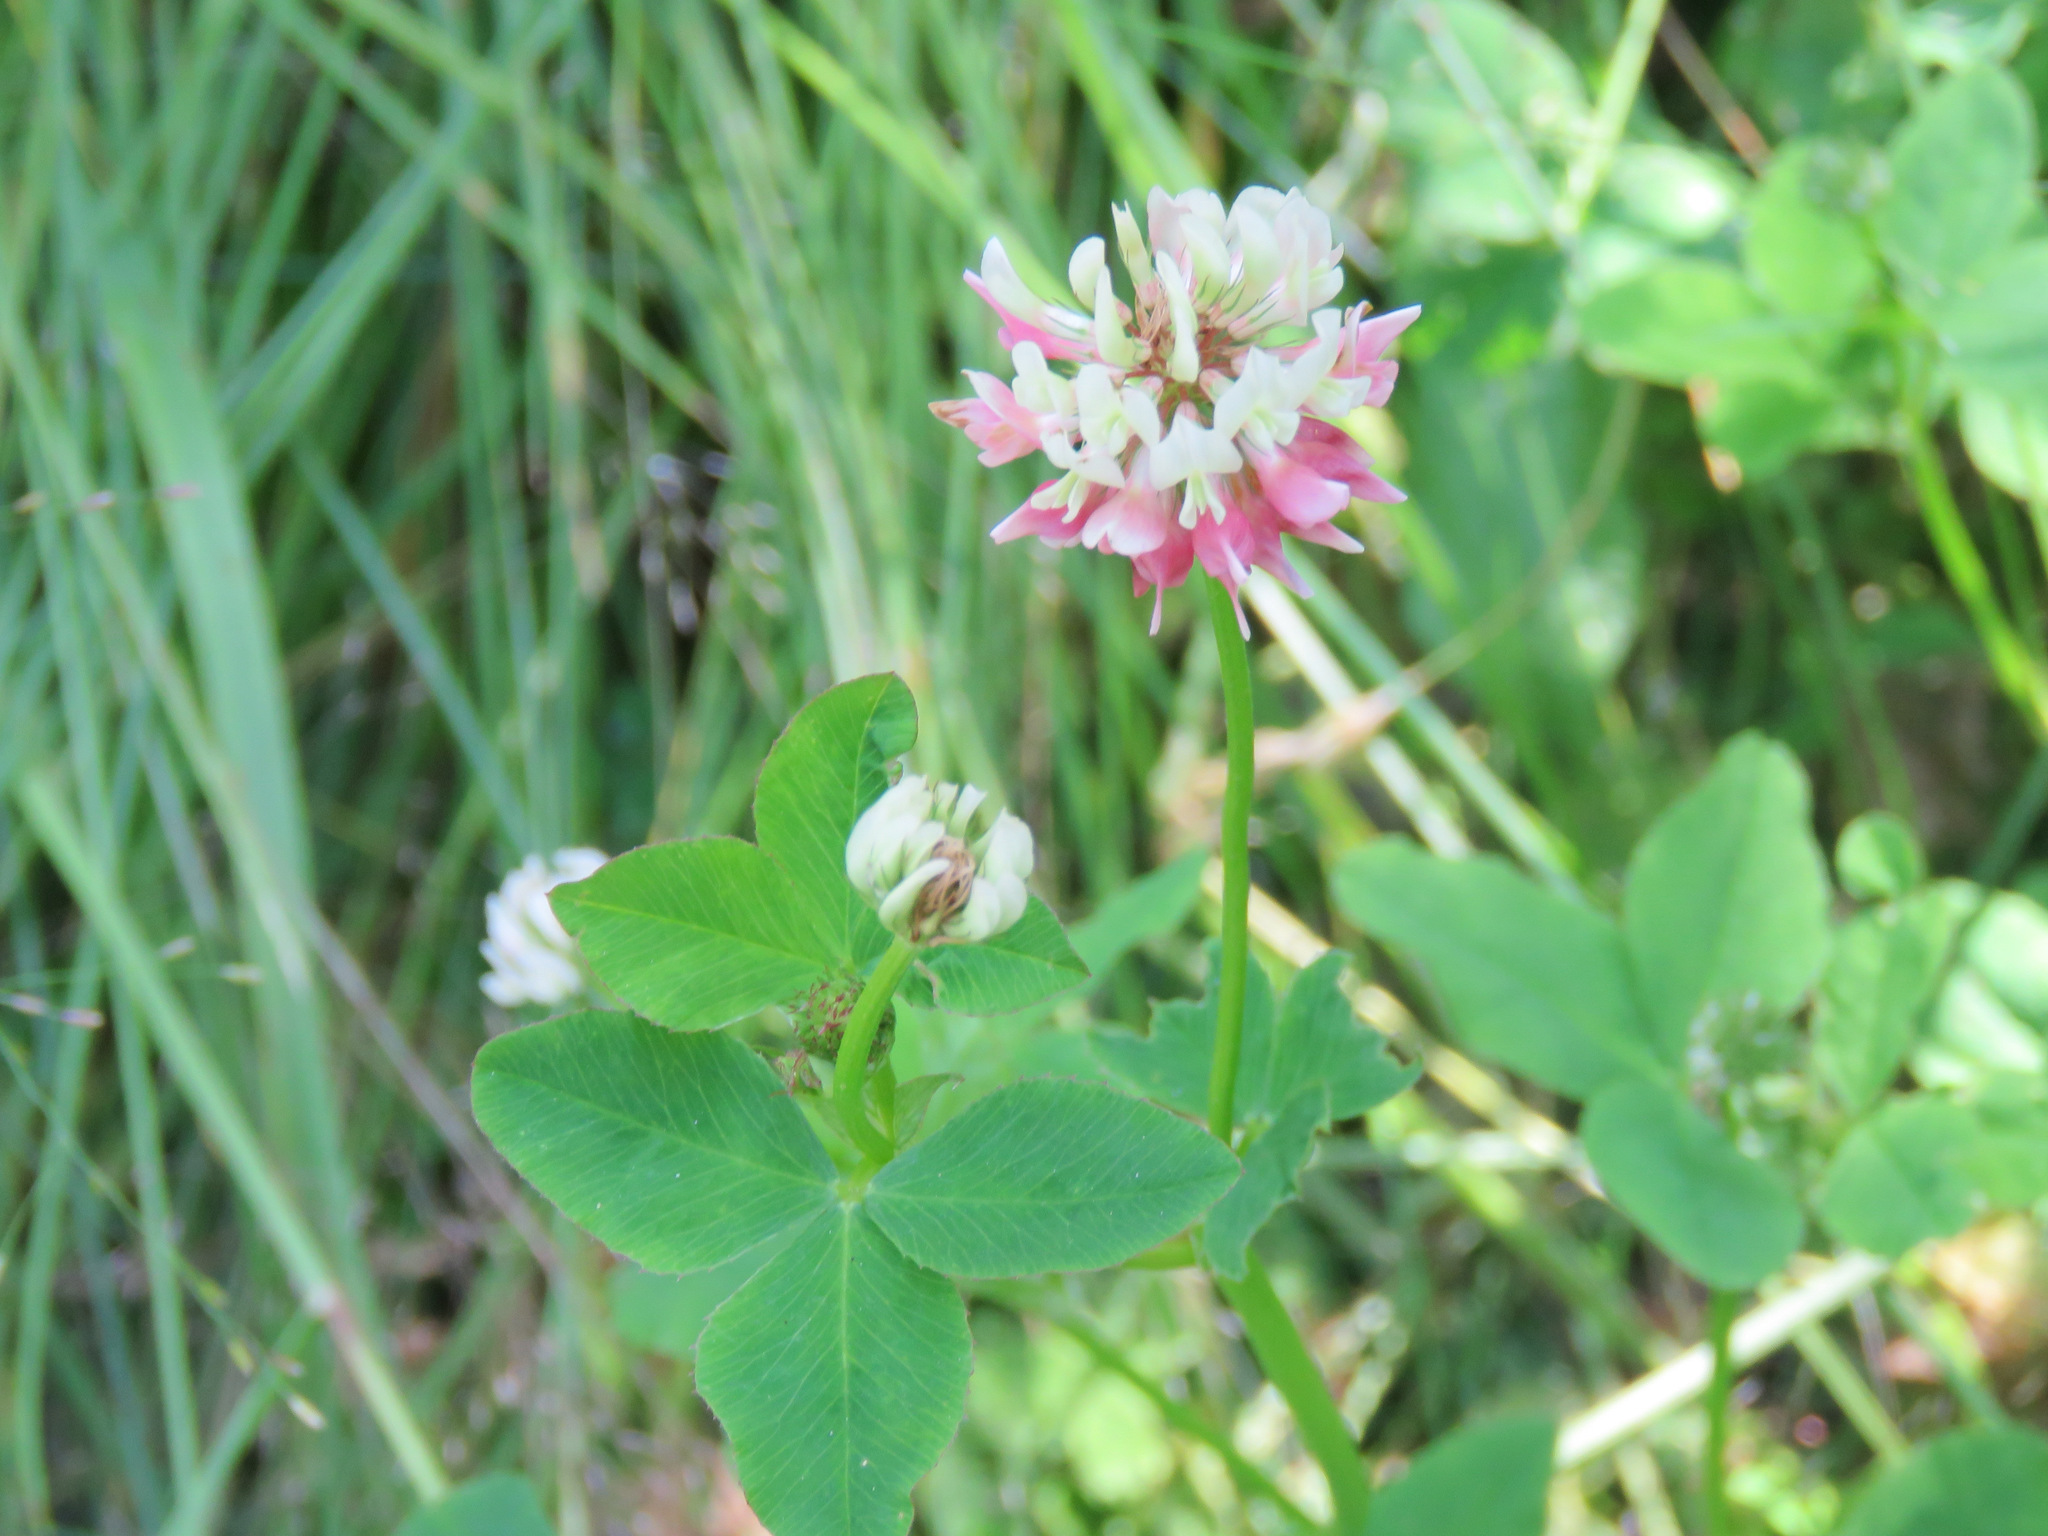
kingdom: Plantae
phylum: Tracheophyta
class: Magnoliopsida
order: Fabales
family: Fabaceae
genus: Trifolium
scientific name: Trifolium hybridum
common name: Alsike clover
